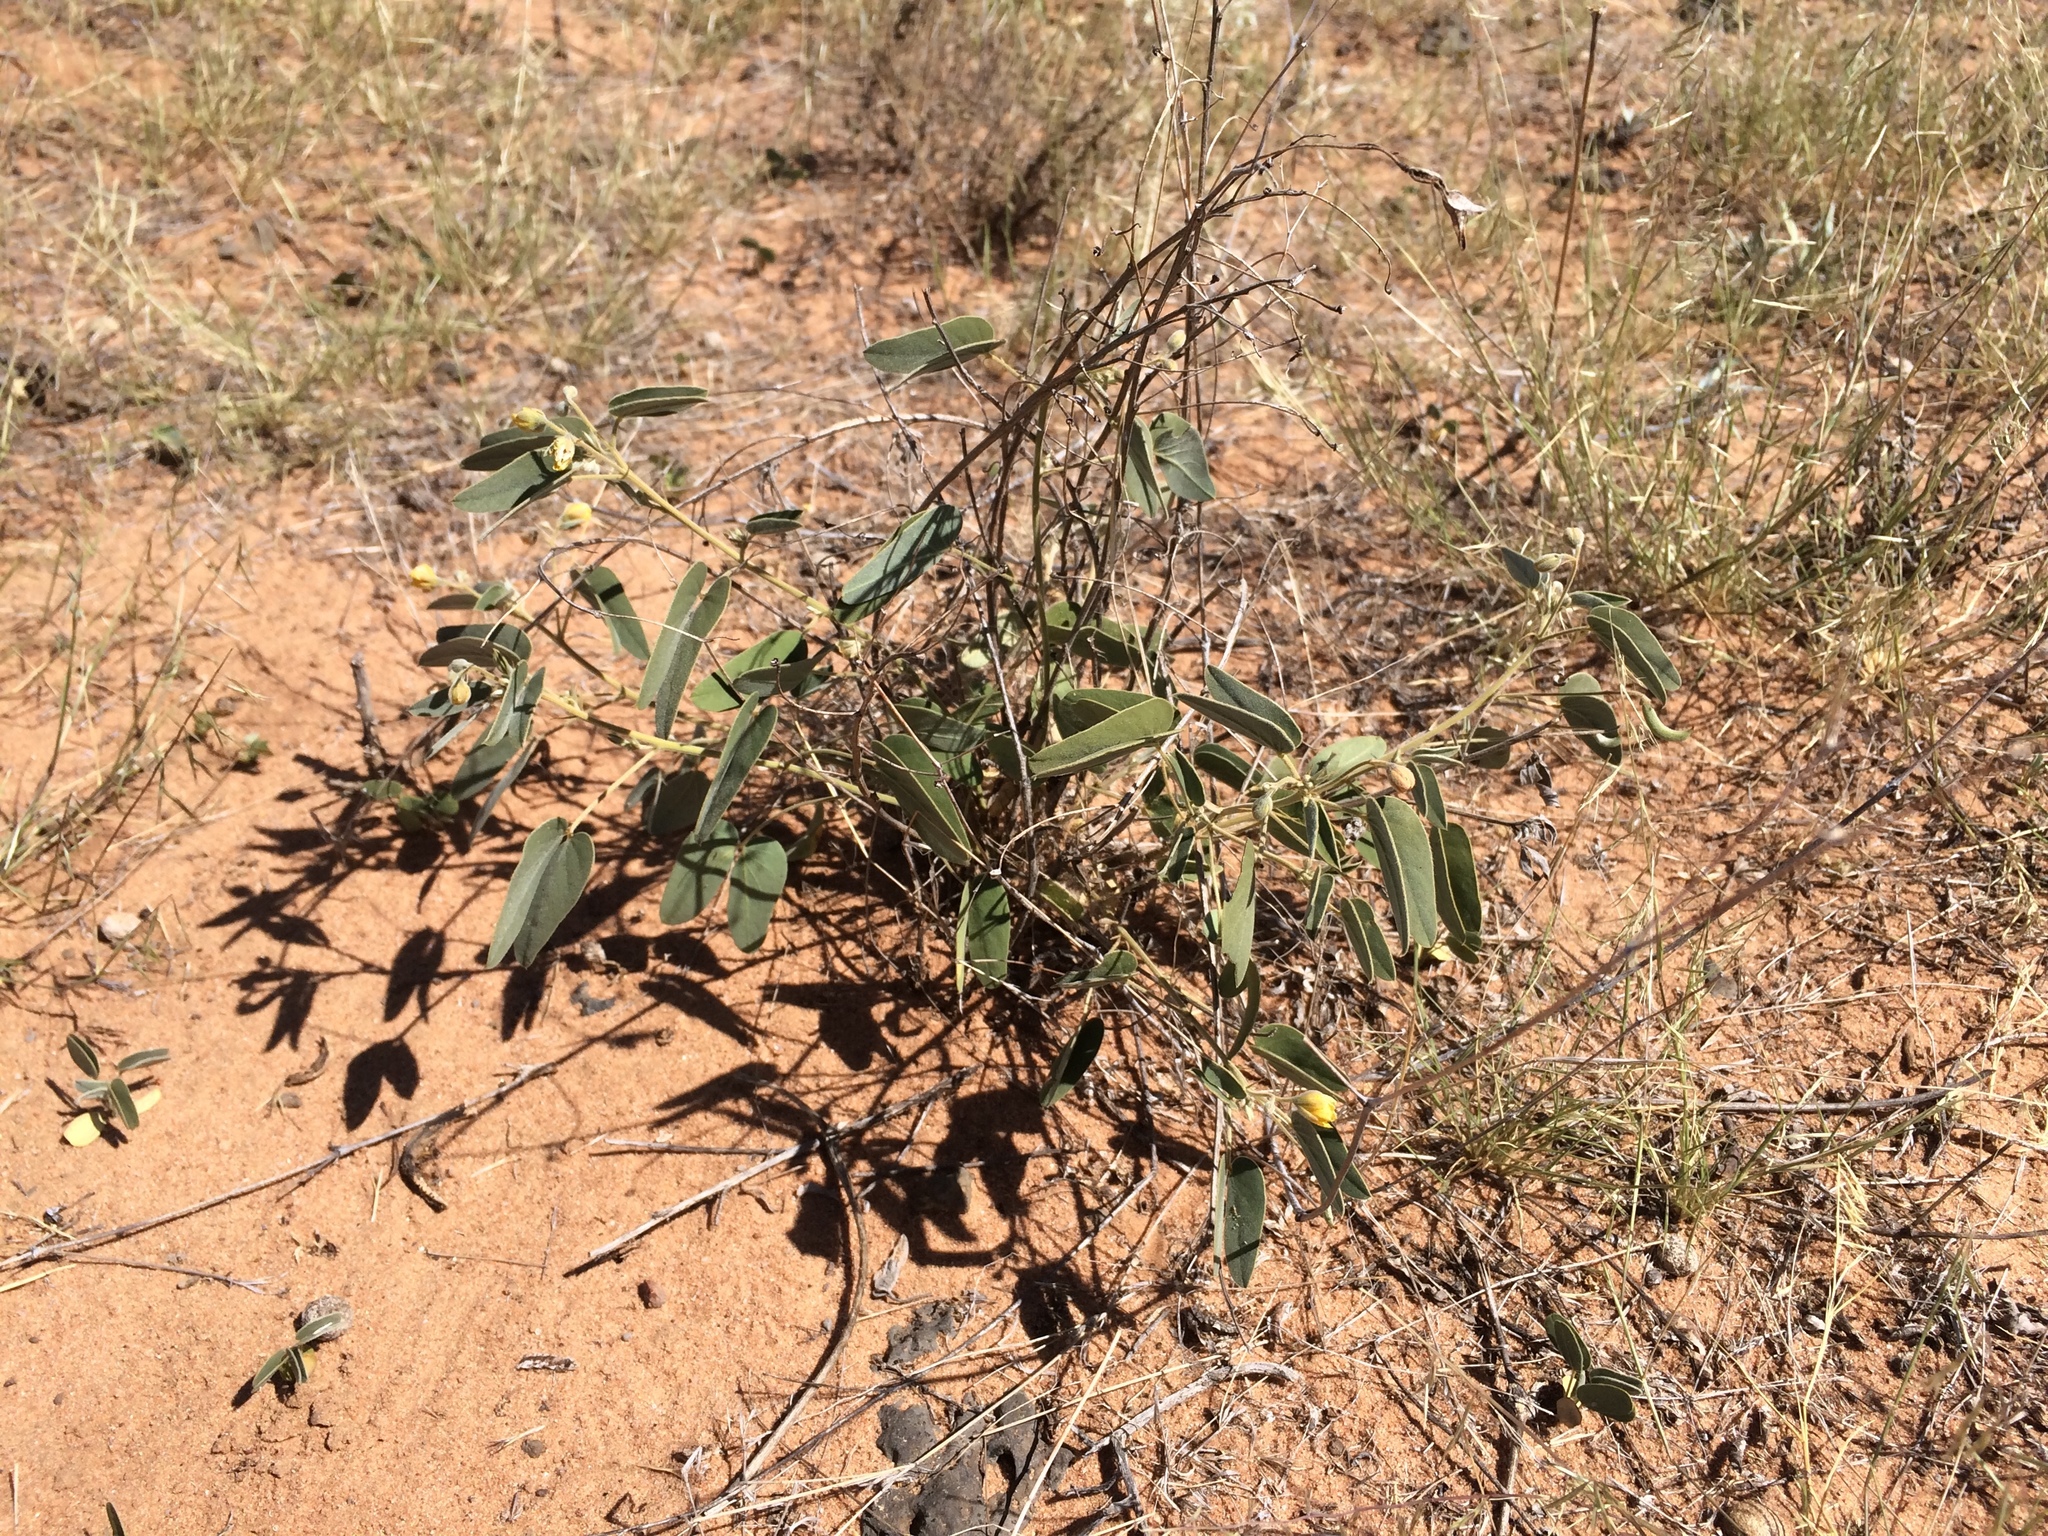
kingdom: Plantae
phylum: Tracheophyta
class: Magnoliopsida
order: Fabales
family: Fabaceae
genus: Senna
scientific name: Senna bauhinioides
